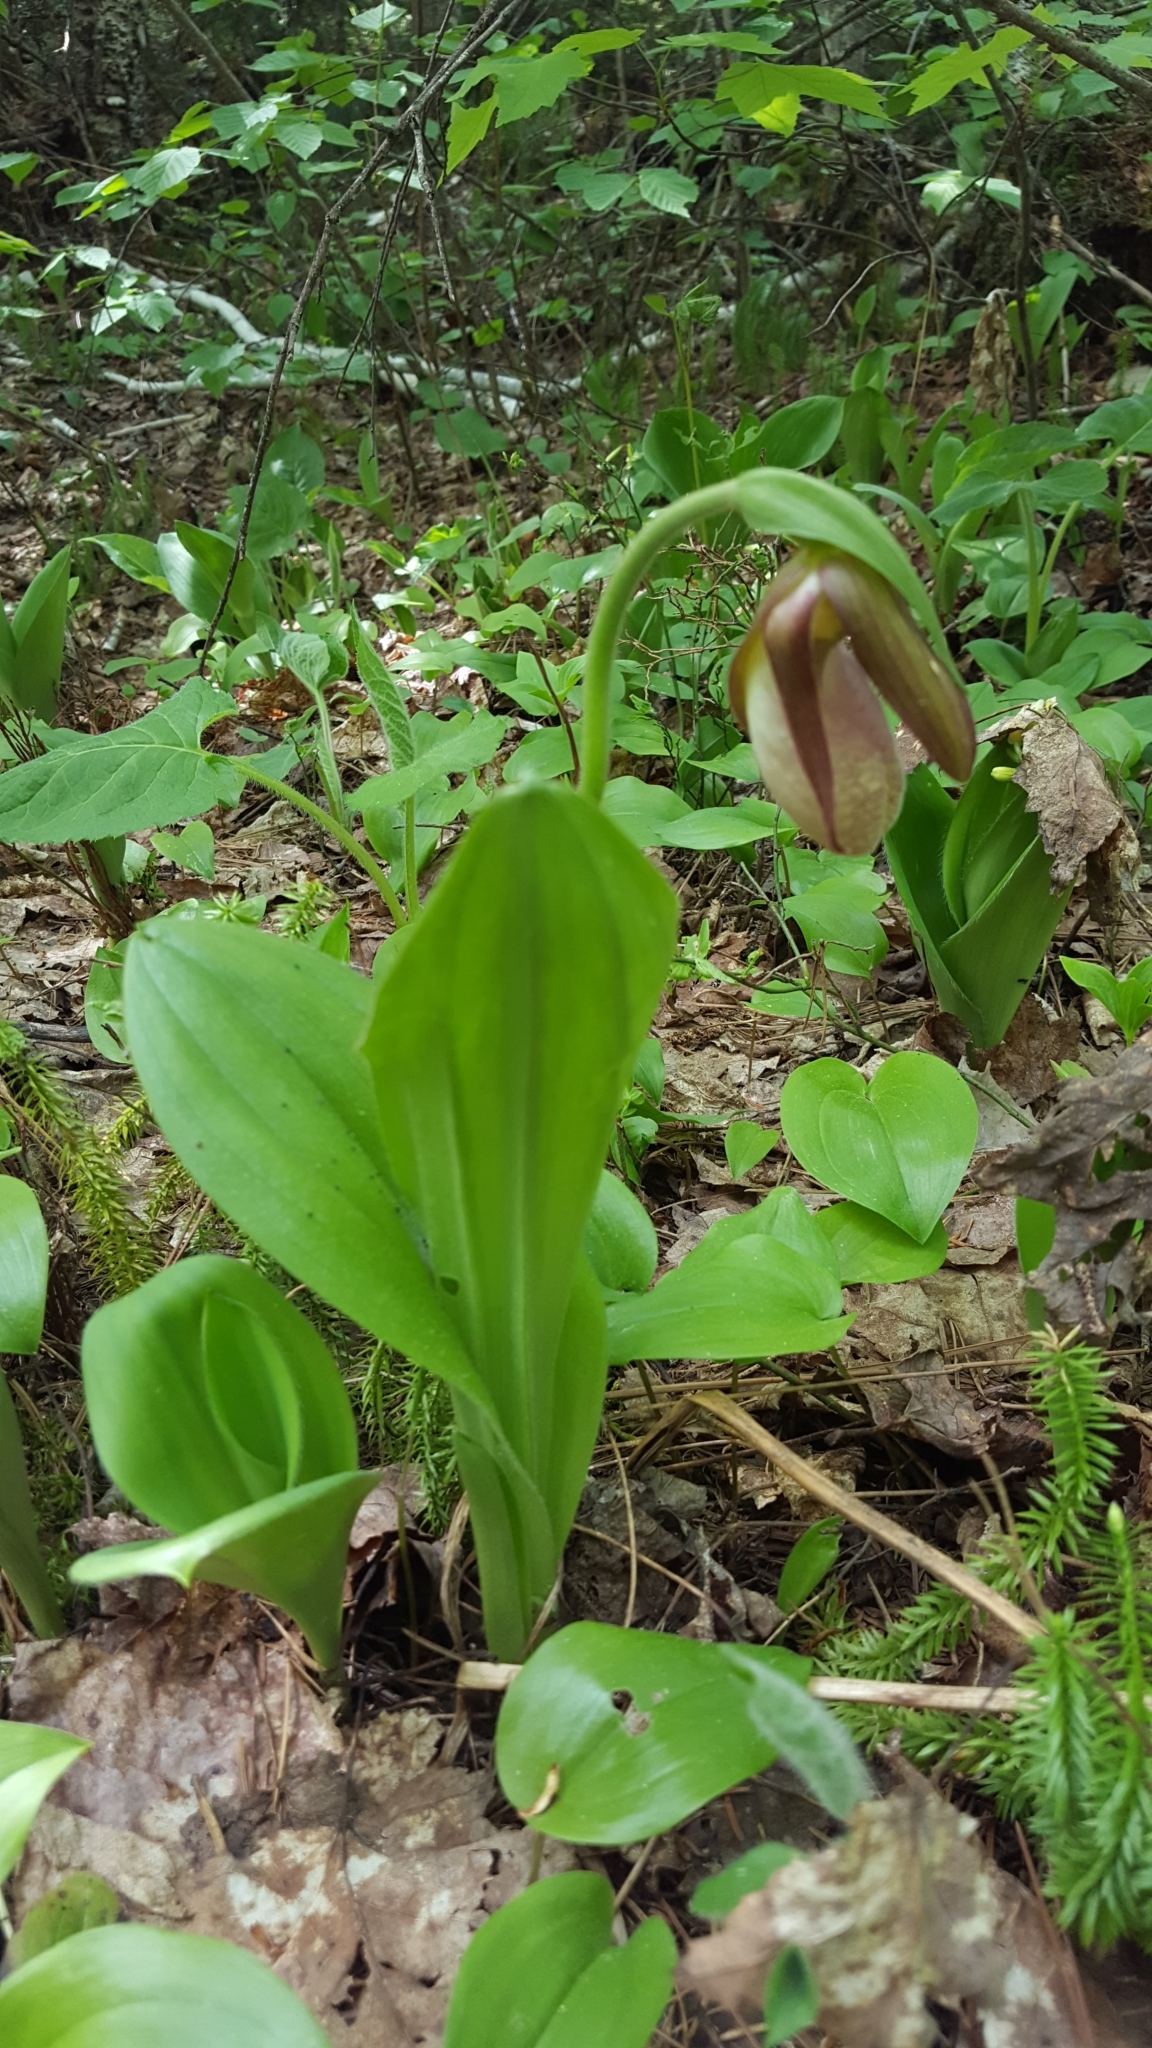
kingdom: Plantae
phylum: Tracheophyta
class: Liliopsida
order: Asparagales
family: Orchidaceae
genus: Cypripedium
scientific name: Cypripedium acaule
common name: Pink lady's-slipper
